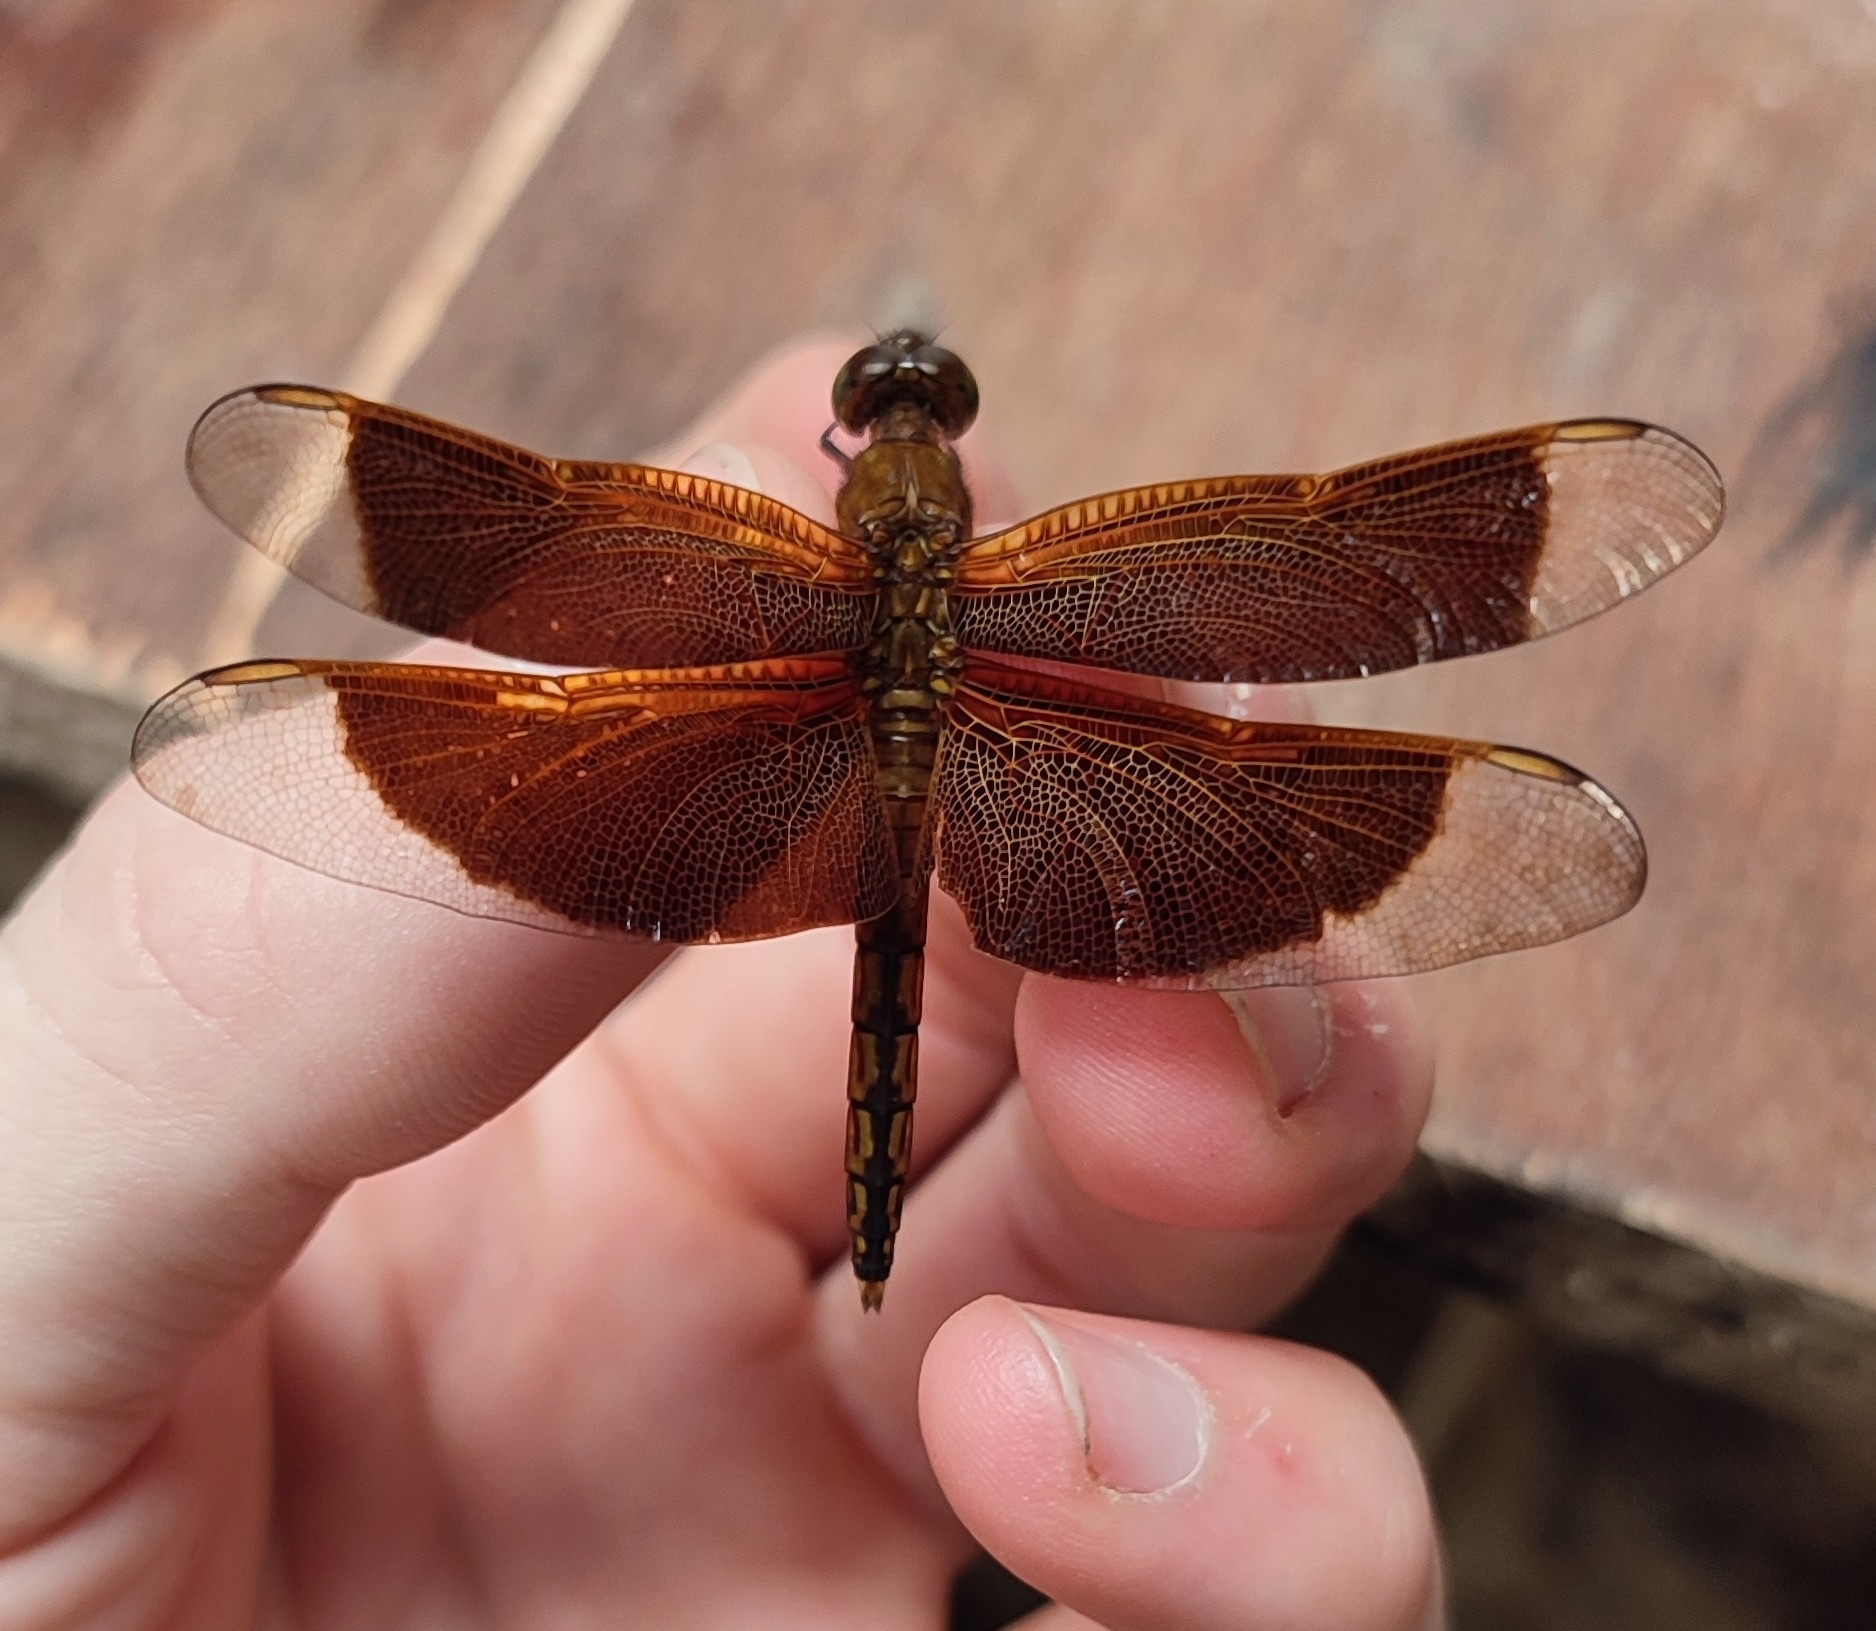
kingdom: Animalia
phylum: Arthropoda
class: Insecta
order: Odonata
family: Libellulidae
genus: Neurothemis
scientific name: Neurothemis ramburii
